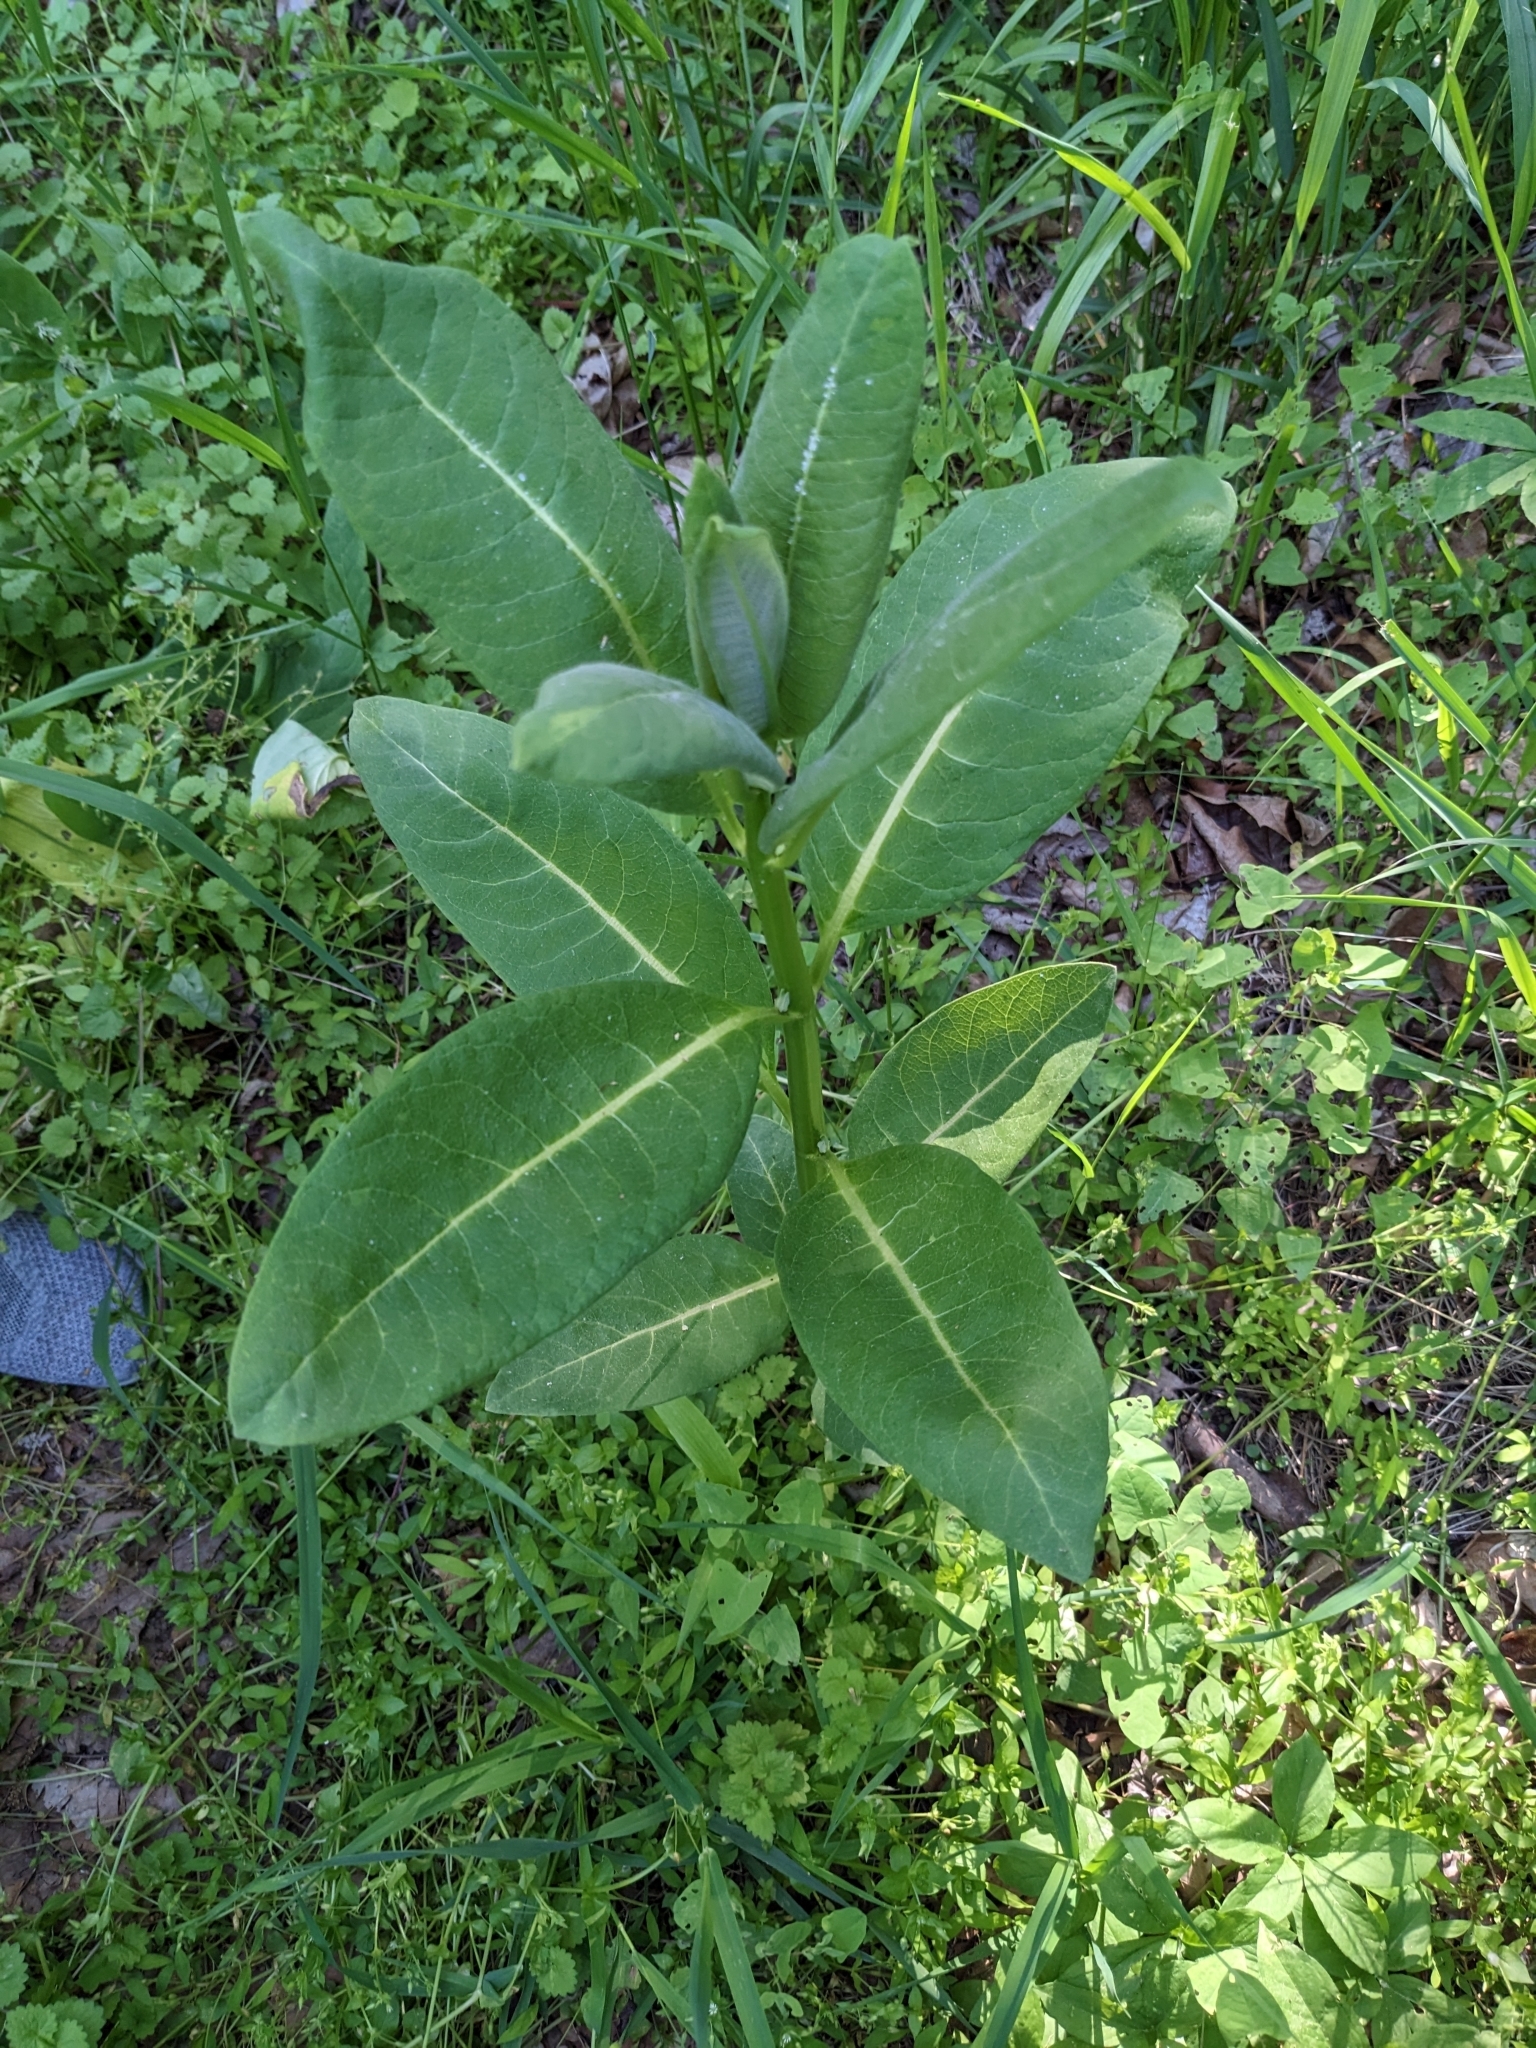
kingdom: Plantae
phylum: Tracheophyta
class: Magnoliopsida
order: Gentianales
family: Apocynaceae
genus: Asclepias
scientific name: Asclepias syriaca
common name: Common milkweed
